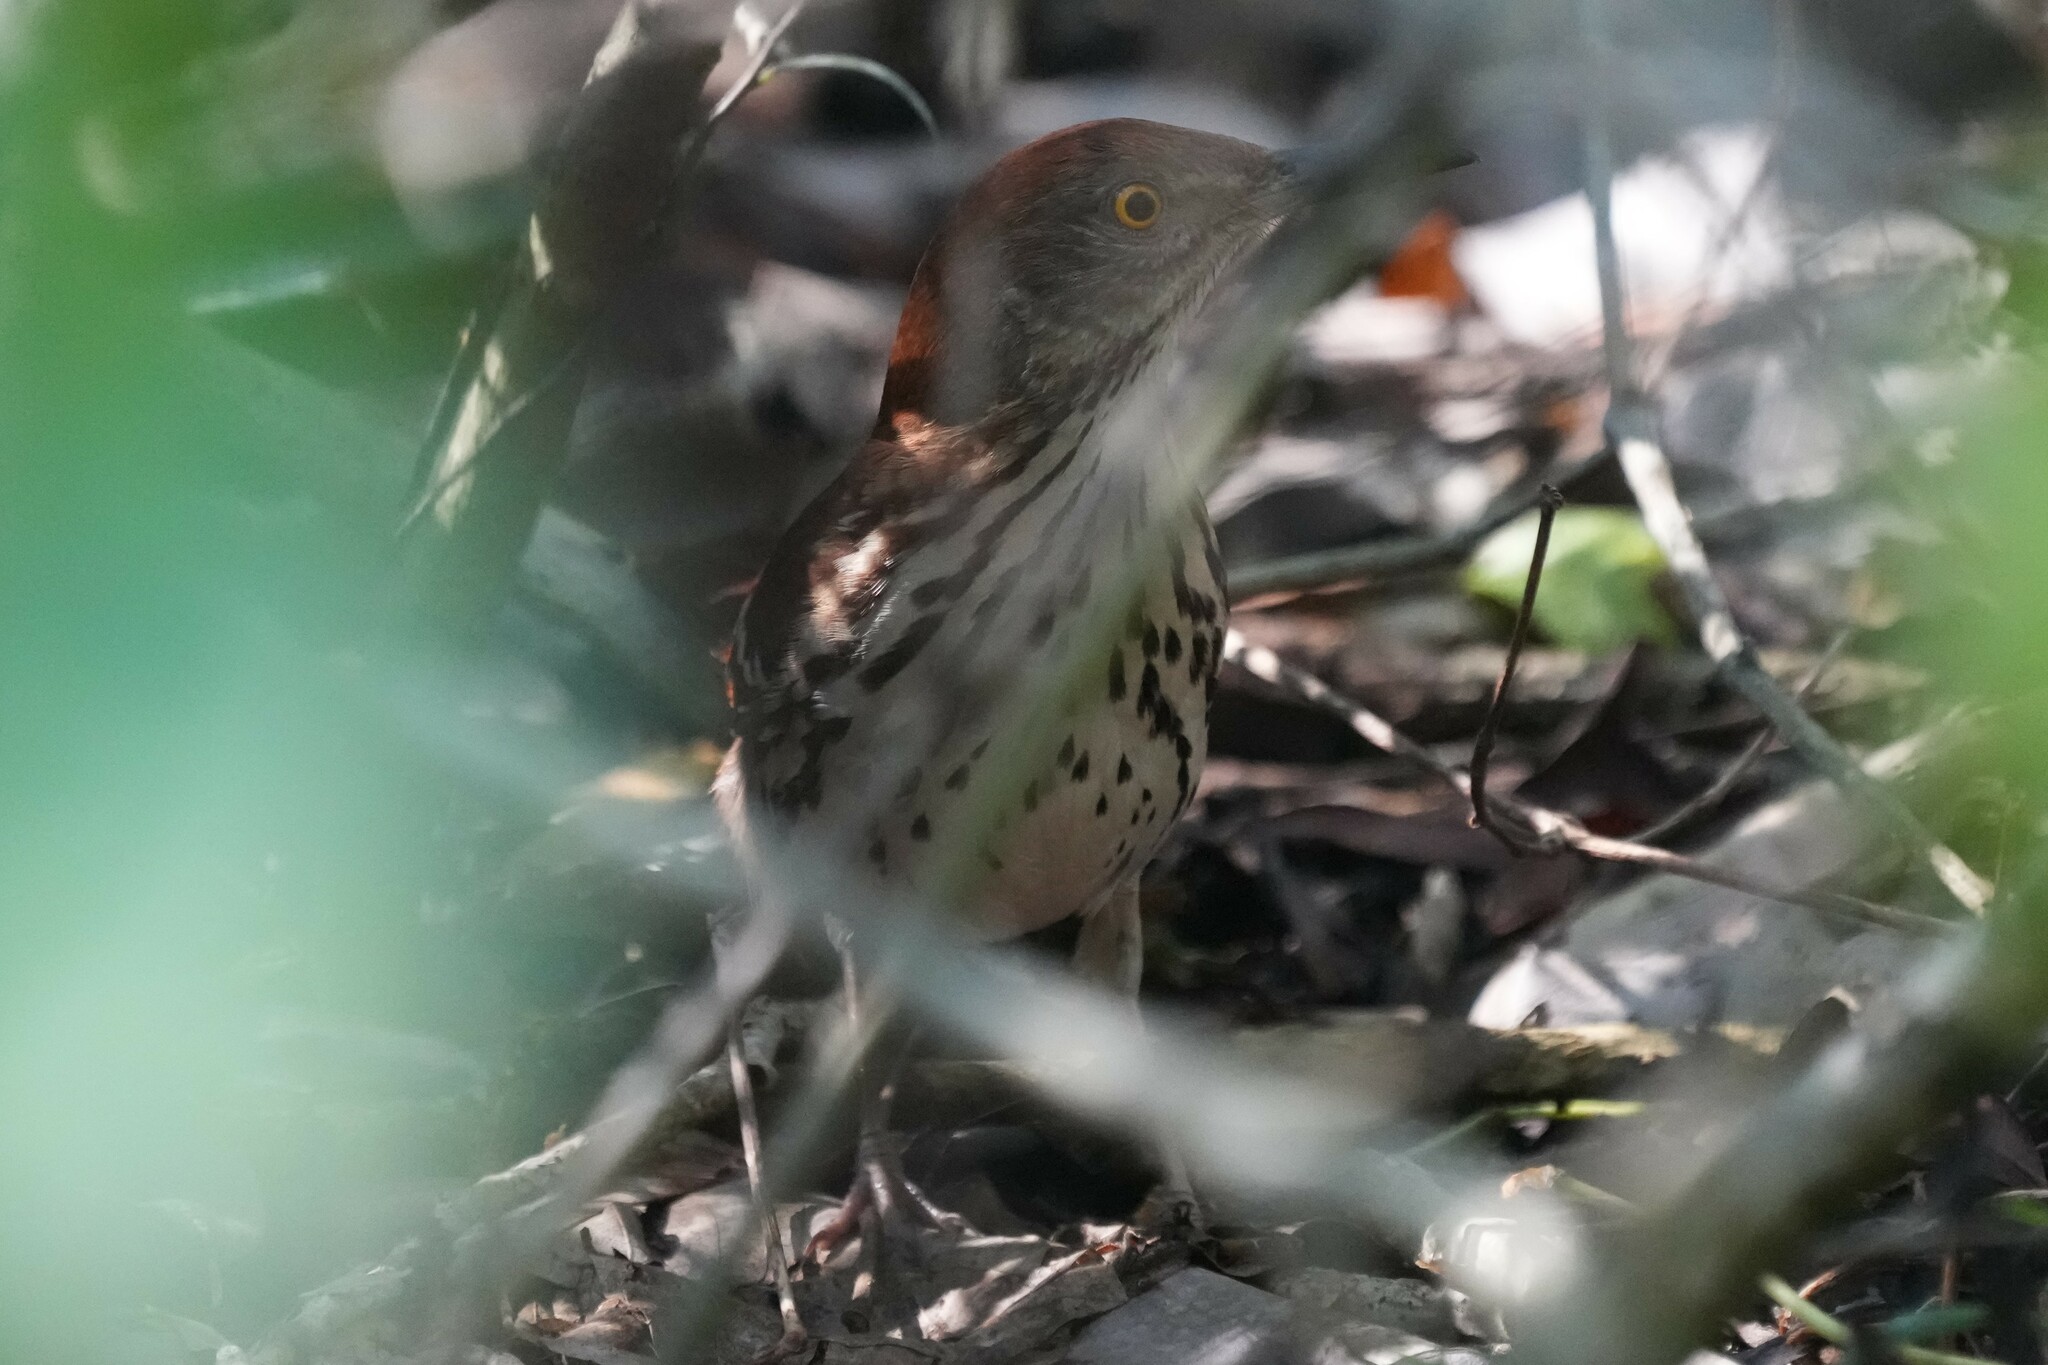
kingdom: Animalia
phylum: Chordata
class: Aves
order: Passeriformes
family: Mimidae
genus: Toxostoma
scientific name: Toxostoma rufum
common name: Brown thrasher
